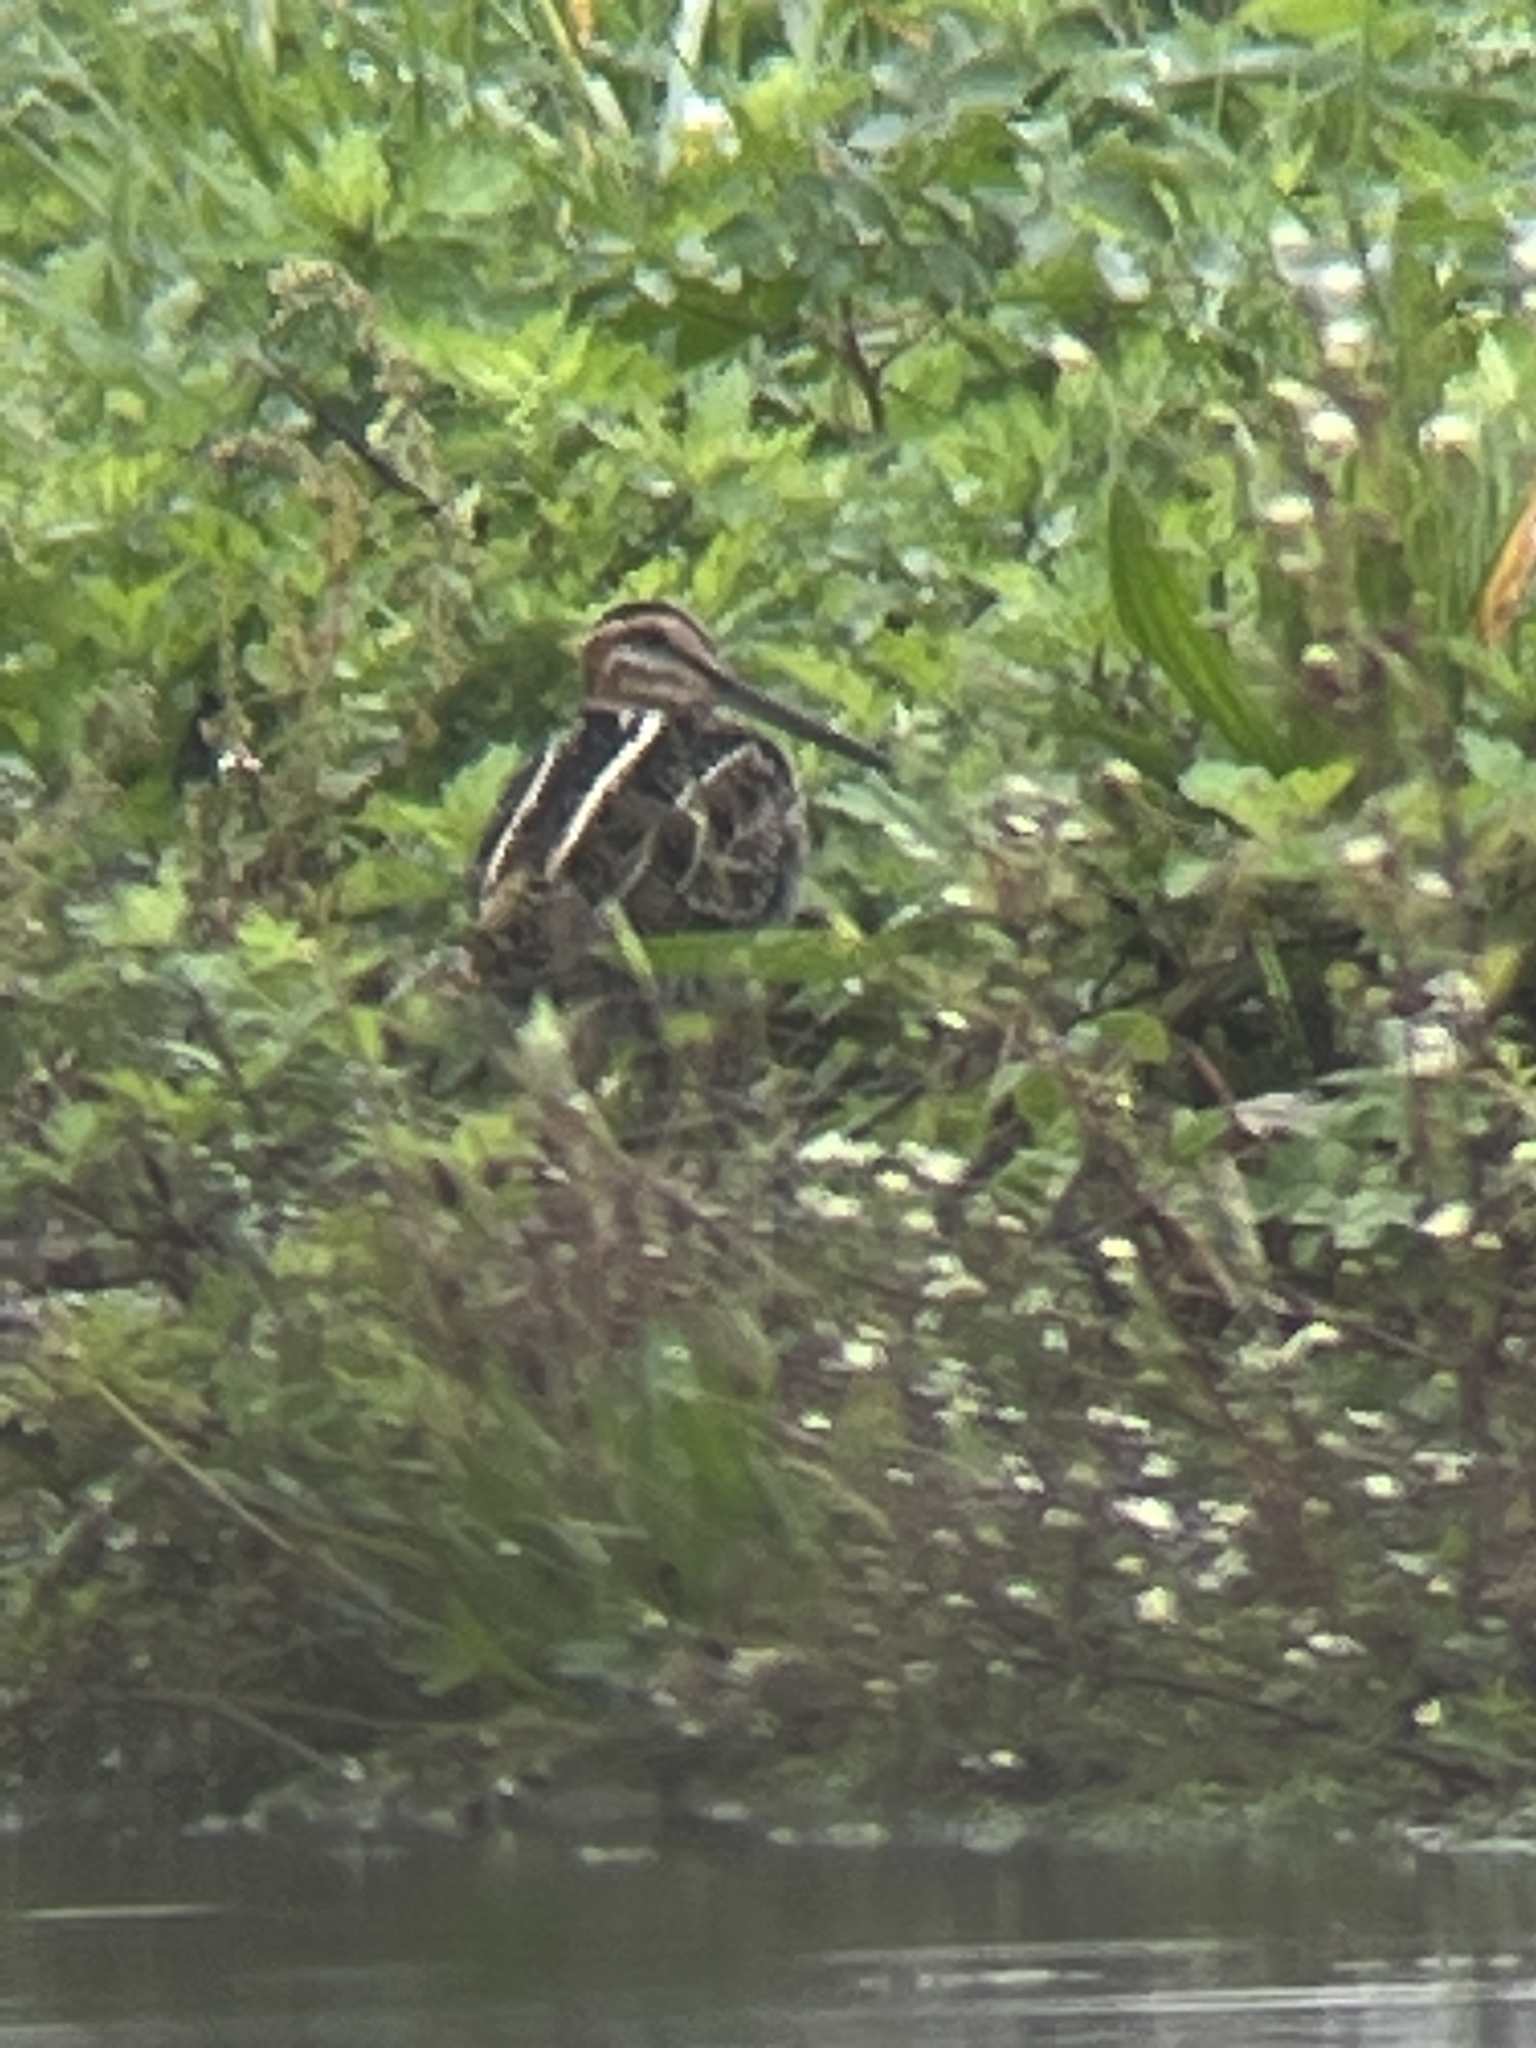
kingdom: Animalia
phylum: Chordata
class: Aves
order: Charadriiformes
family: Scolopacidae
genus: Gallinago
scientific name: Gallinago delicata
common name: Wilson's snipe
